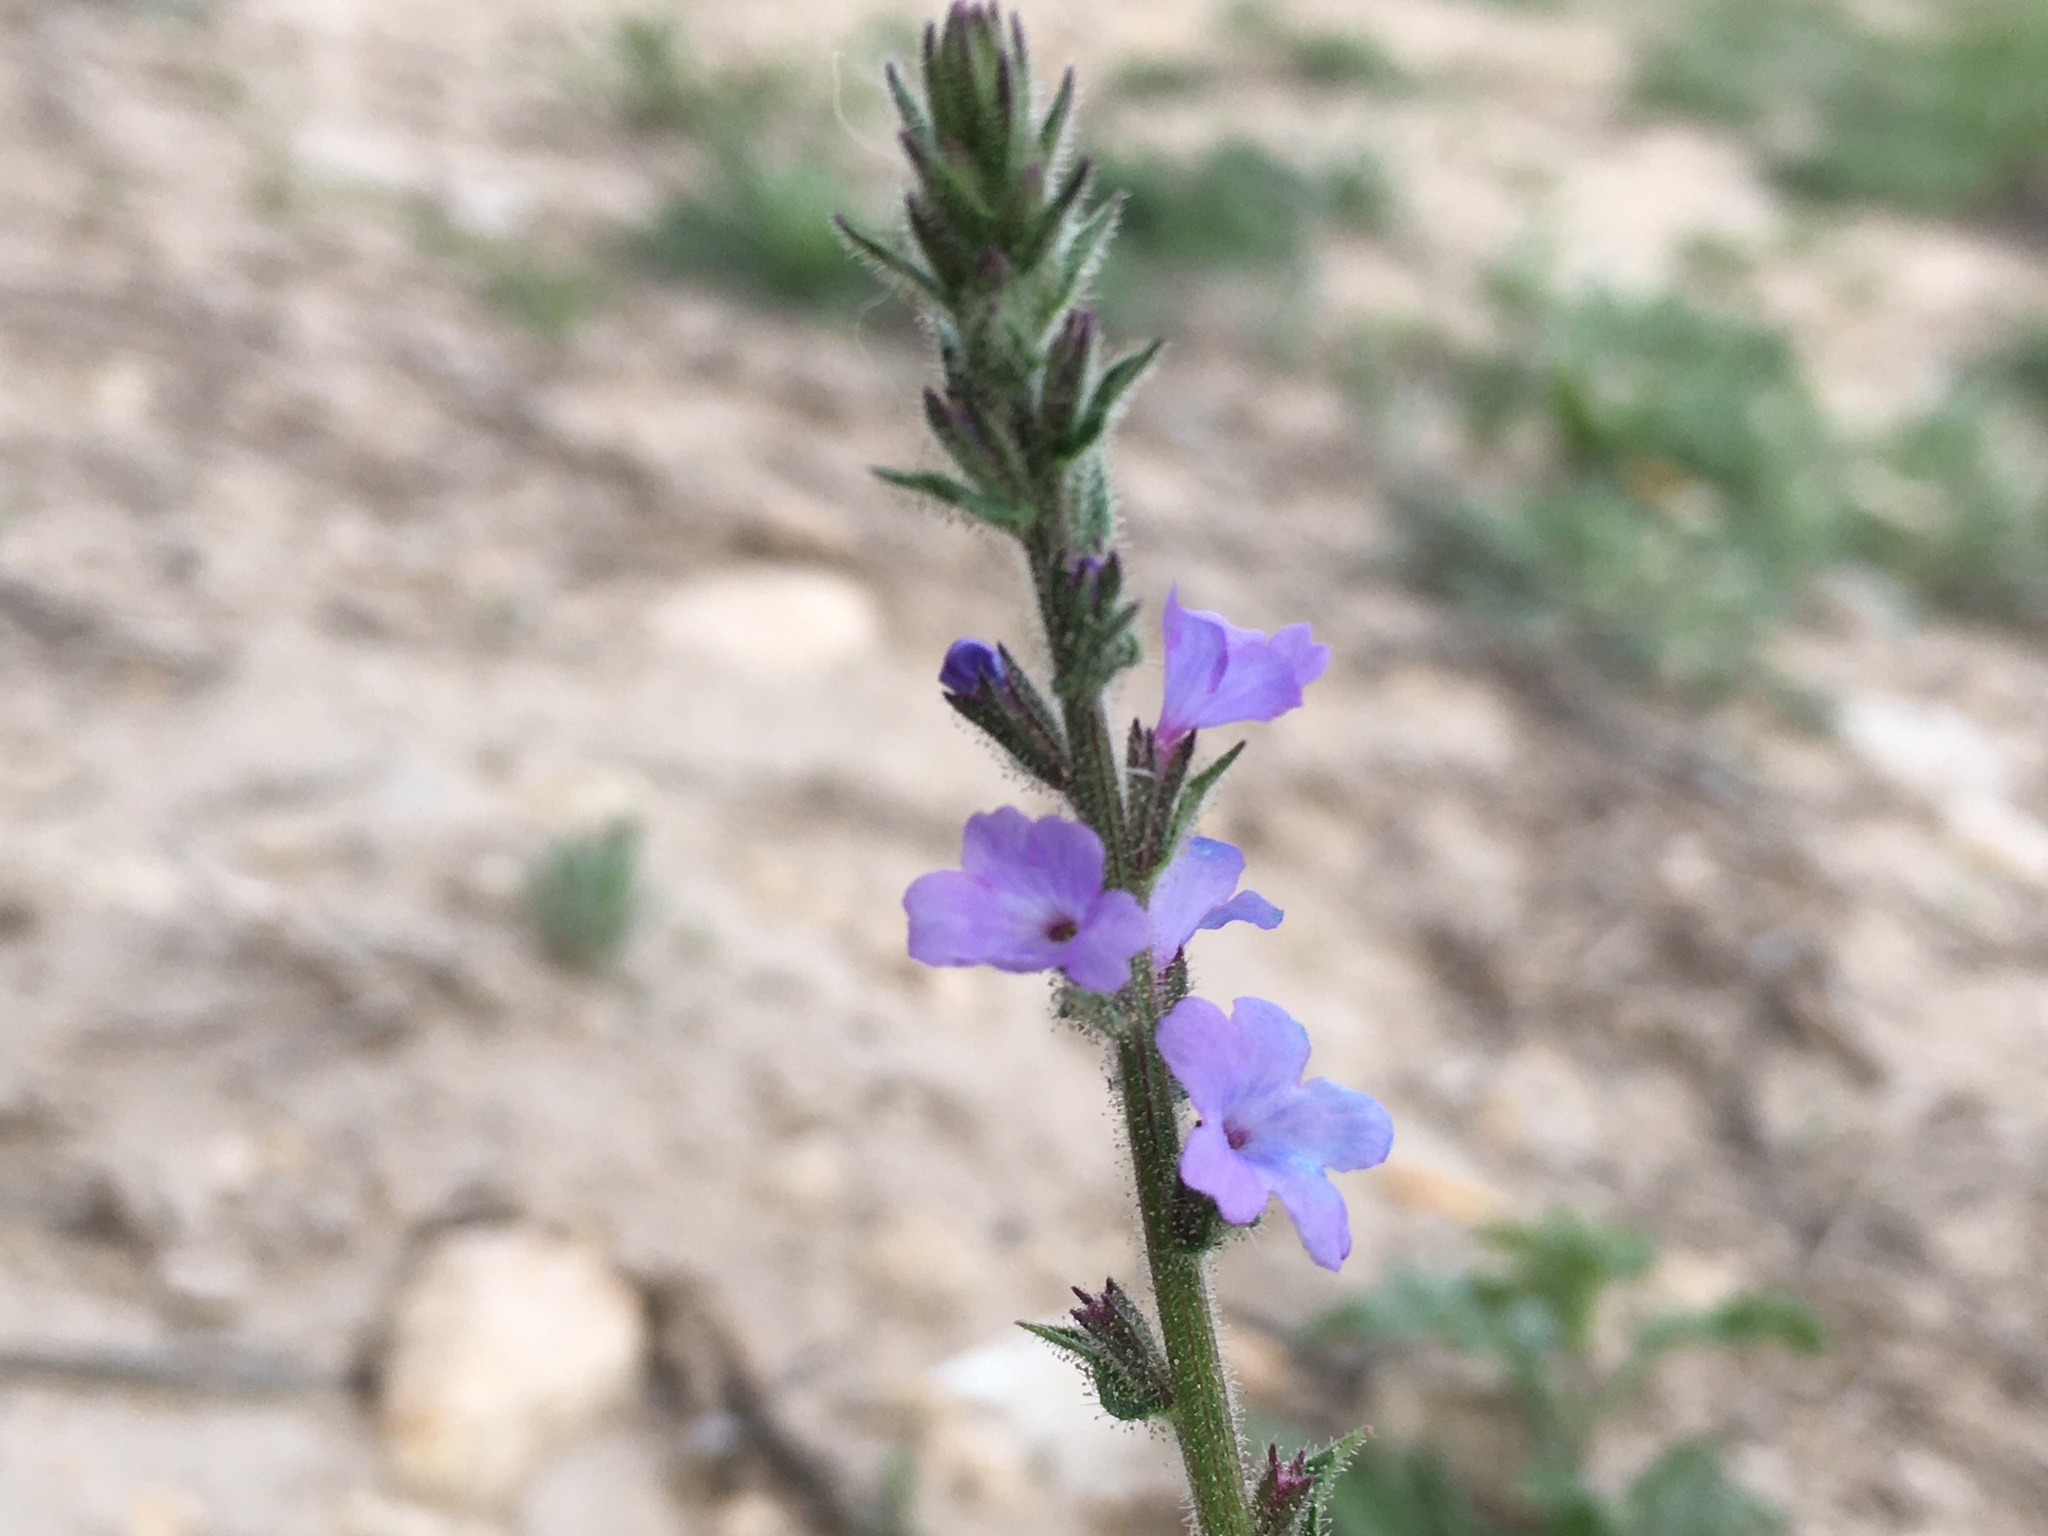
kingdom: Plantae
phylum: Tracheophyta
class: Magnoliopsida
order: Lamiales
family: Verbenaceae
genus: Verbena
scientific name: Verbena plicata
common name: Fan-leaf vervain
